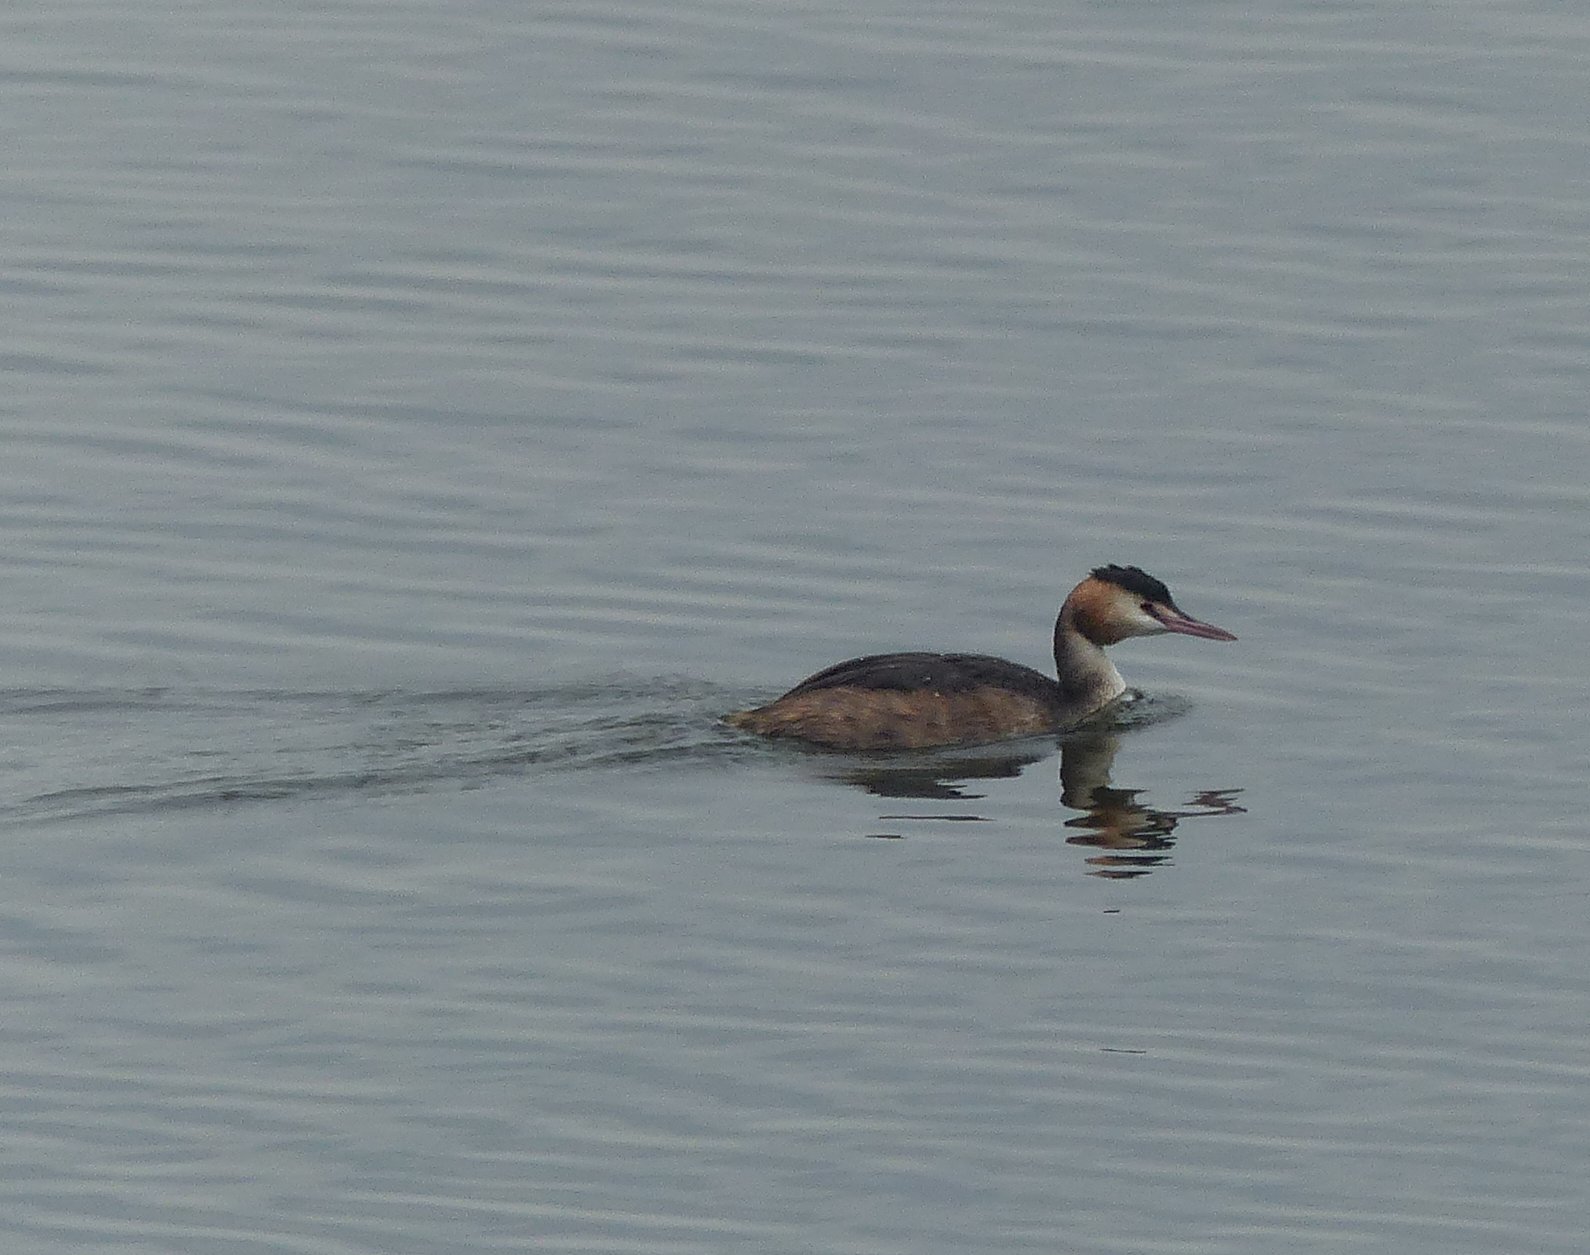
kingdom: Animalia
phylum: Chordata
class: Aves
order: Podicipediformes
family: Podicipedidae
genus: Podiceps
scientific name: Podiceps cristatus
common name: Great crested grebe
